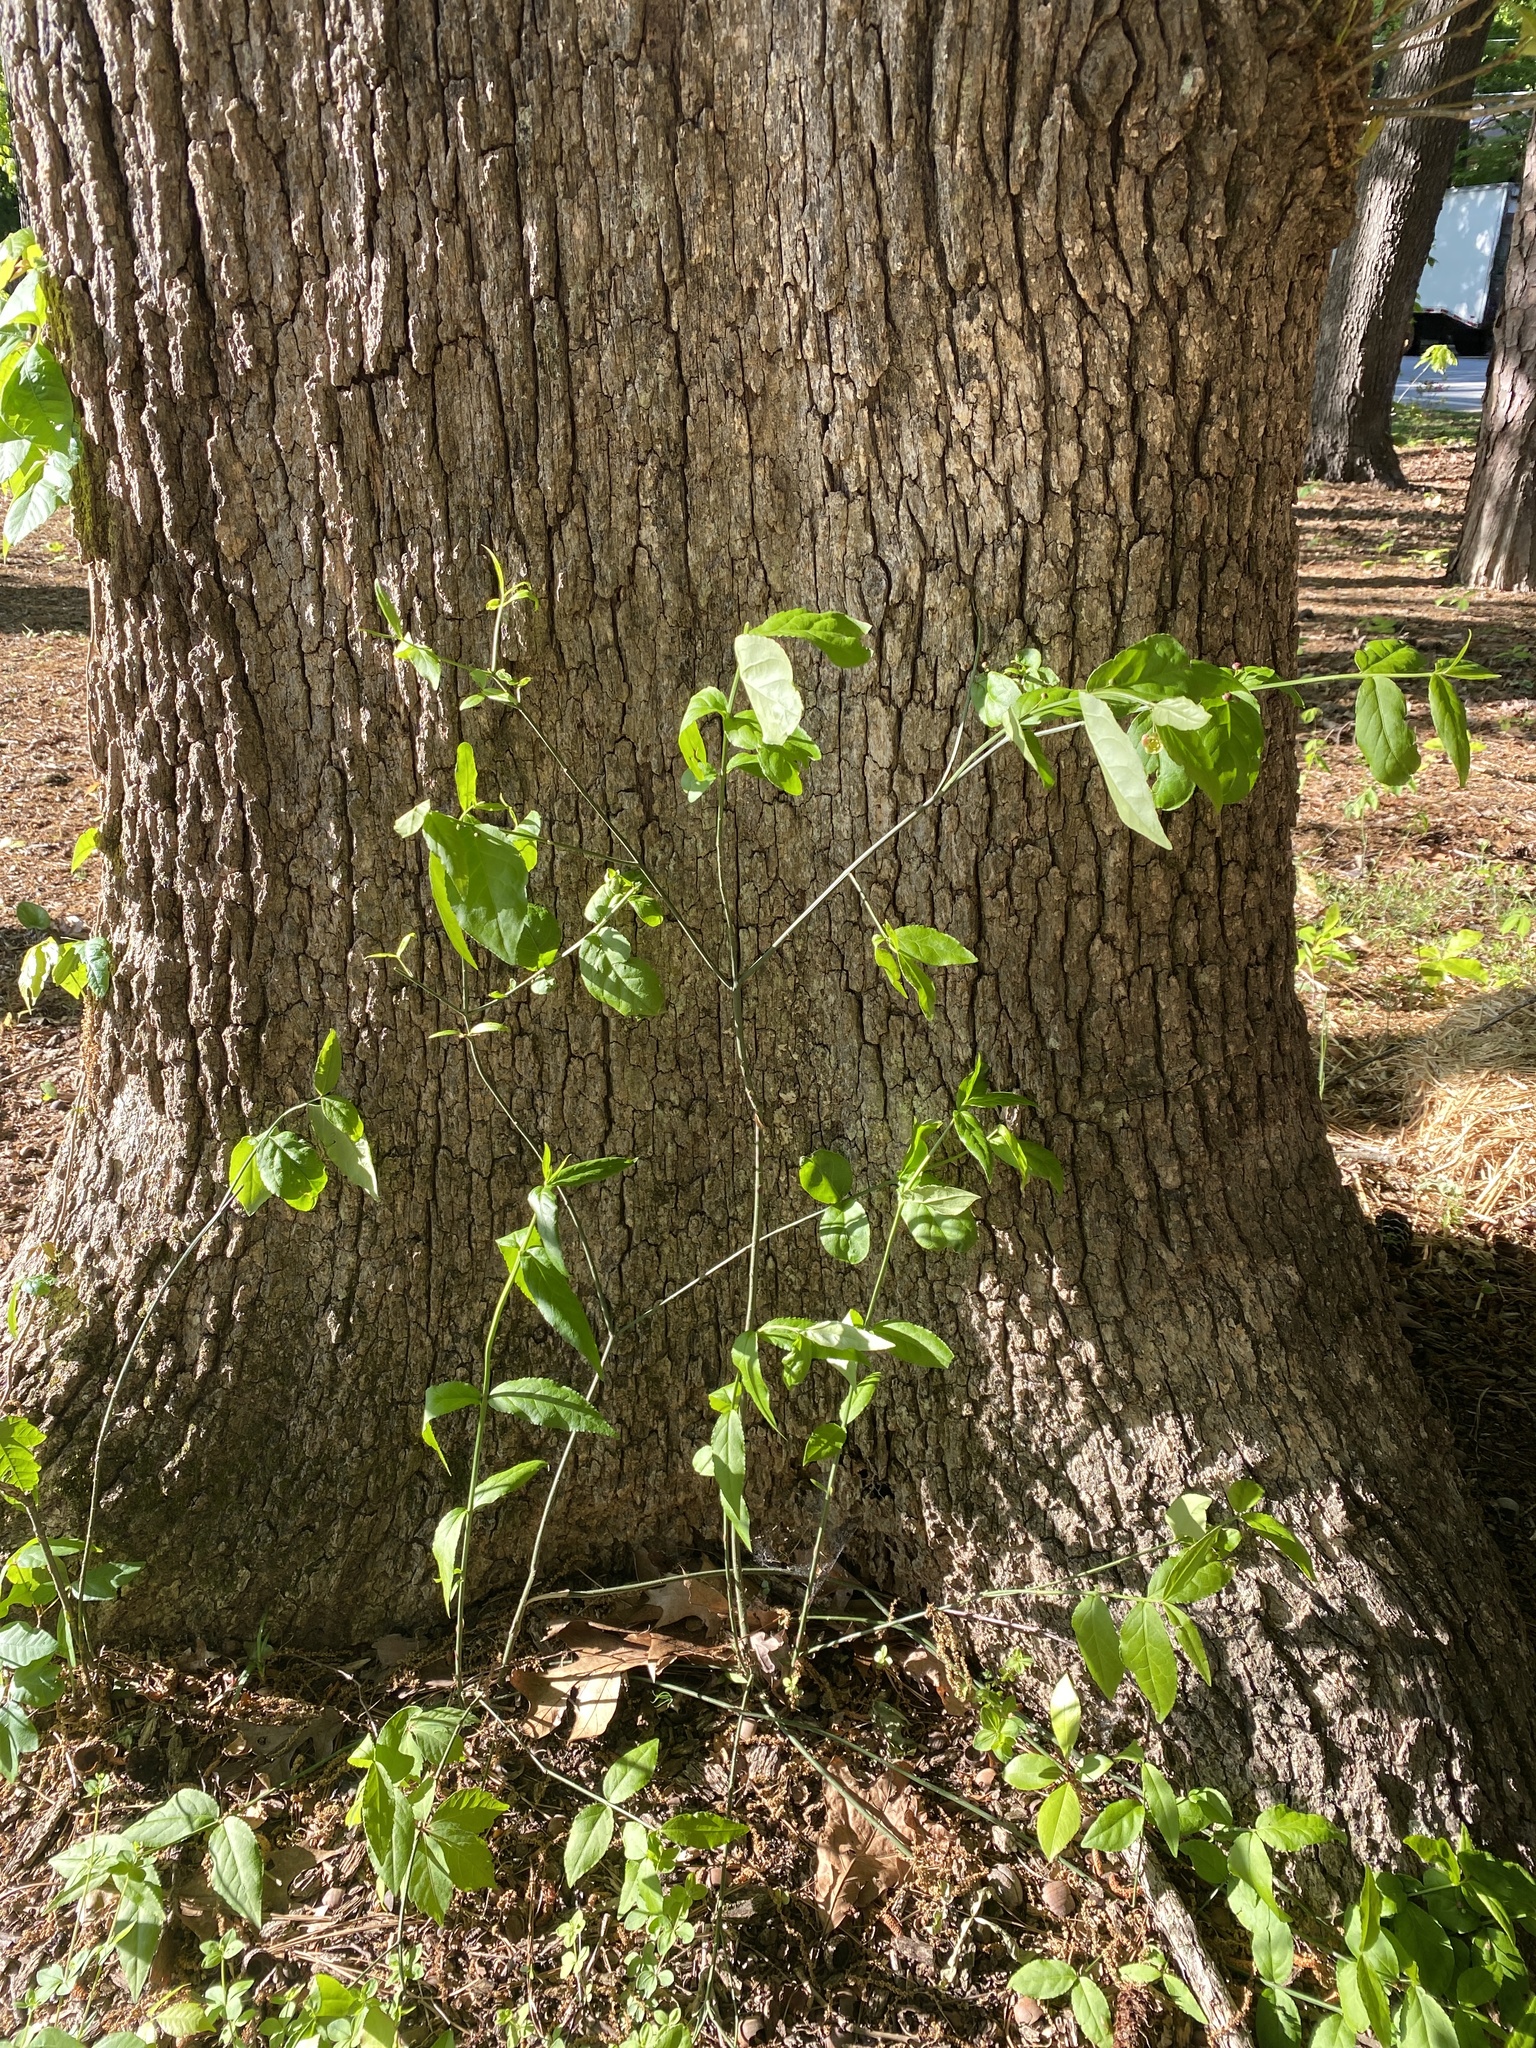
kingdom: Plantae
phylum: Tracheophyta
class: Magnoliopsida
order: Celastrales
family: Celastraceae
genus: Euonymus
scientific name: Euonymus americanus
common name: Bursting-heart
